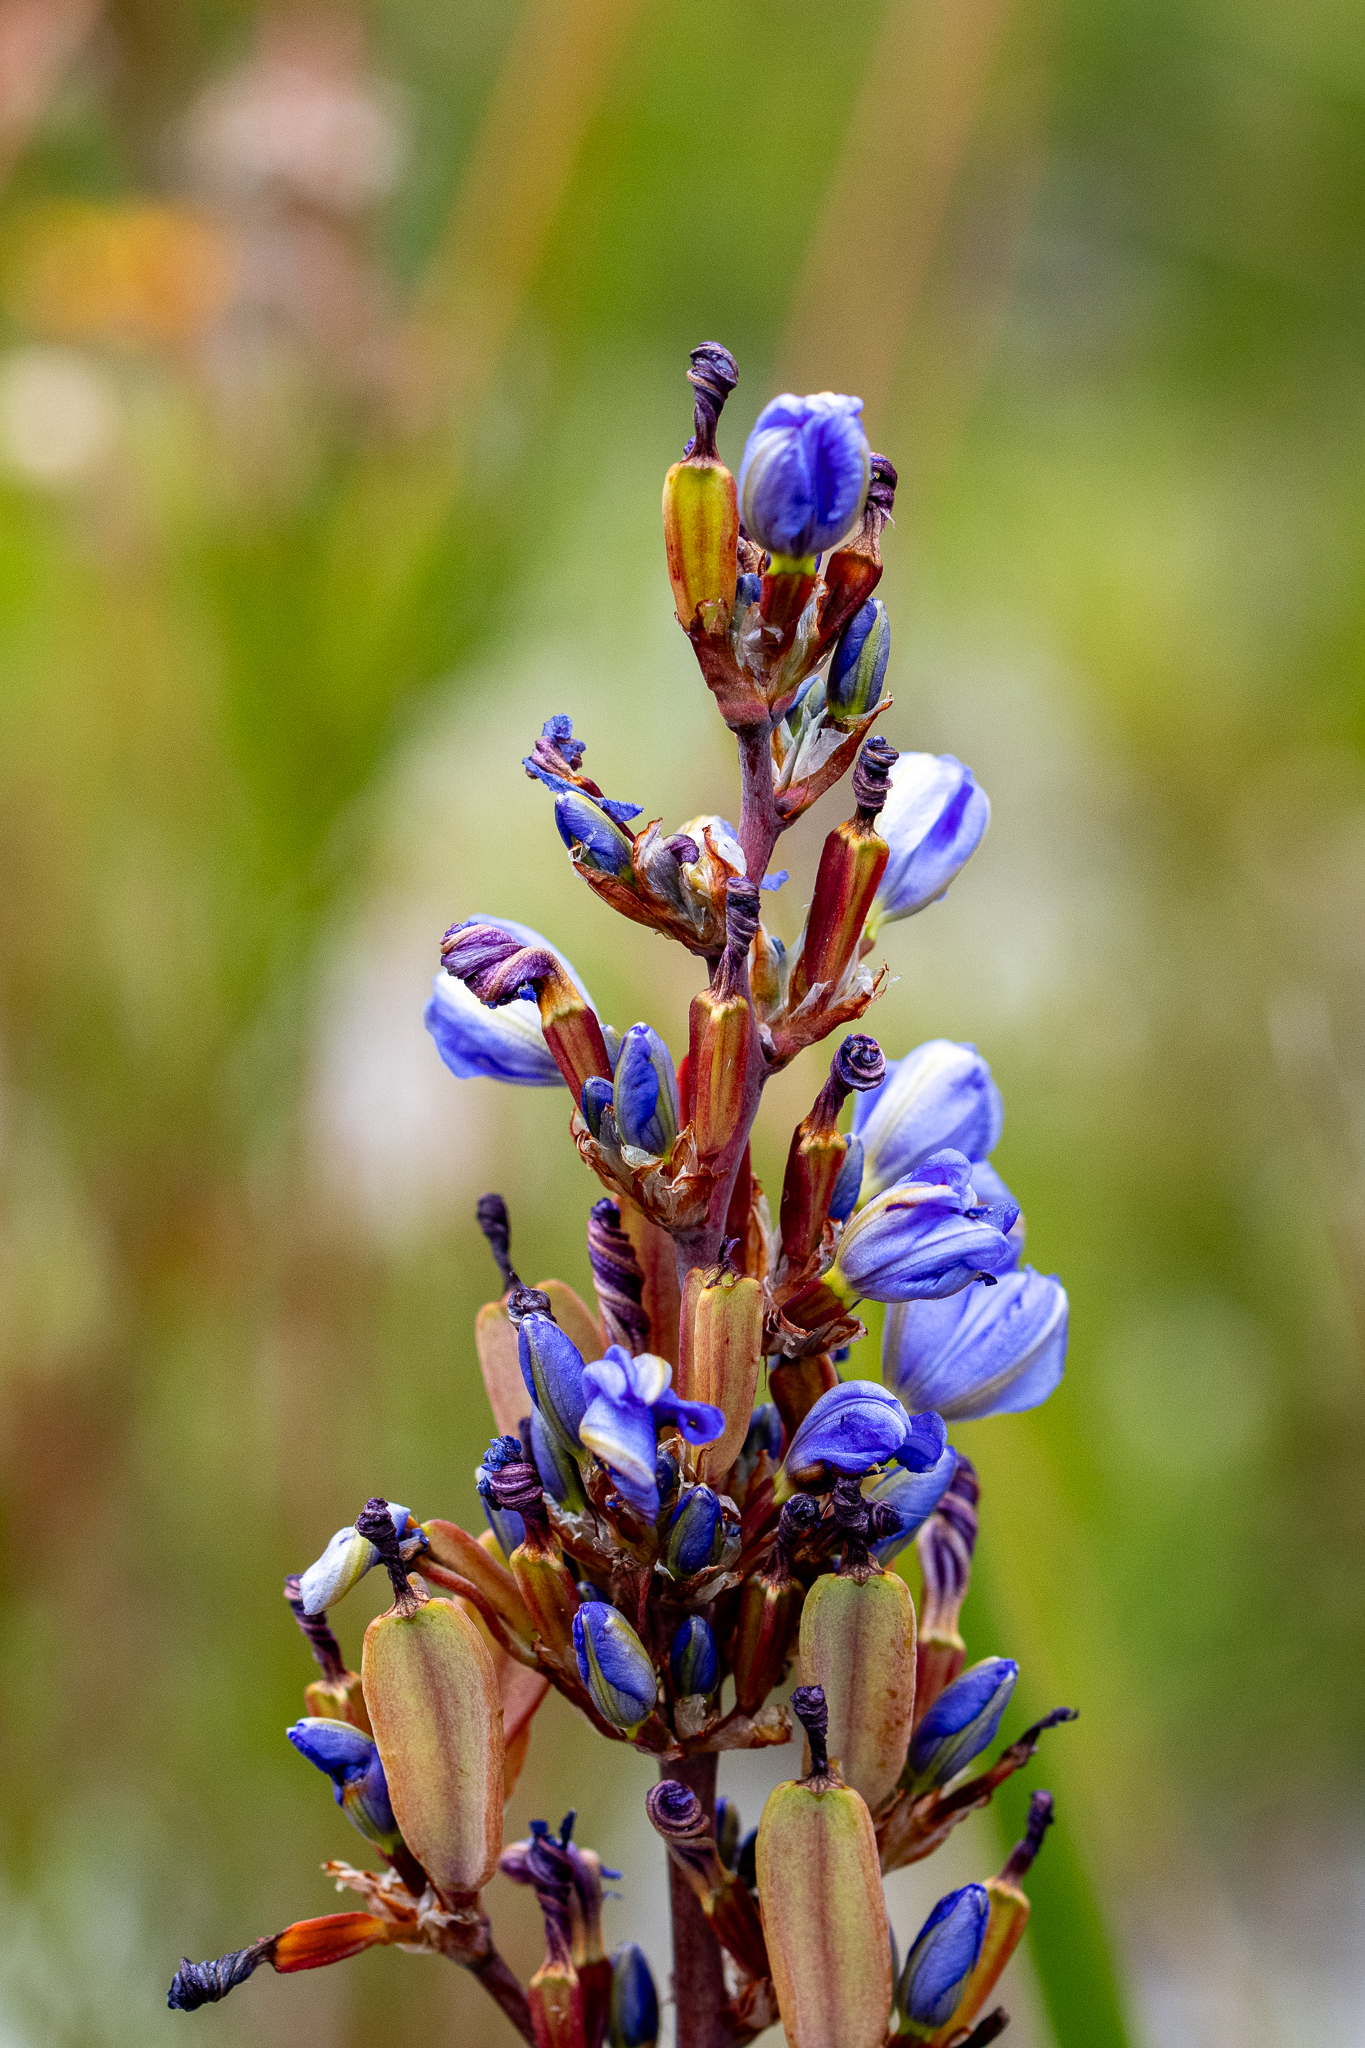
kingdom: Plantae
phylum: Tracheophyta
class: Liliopsida
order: Asparagales
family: Iridaceae
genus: Aristea
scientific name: Aristea bakeri
